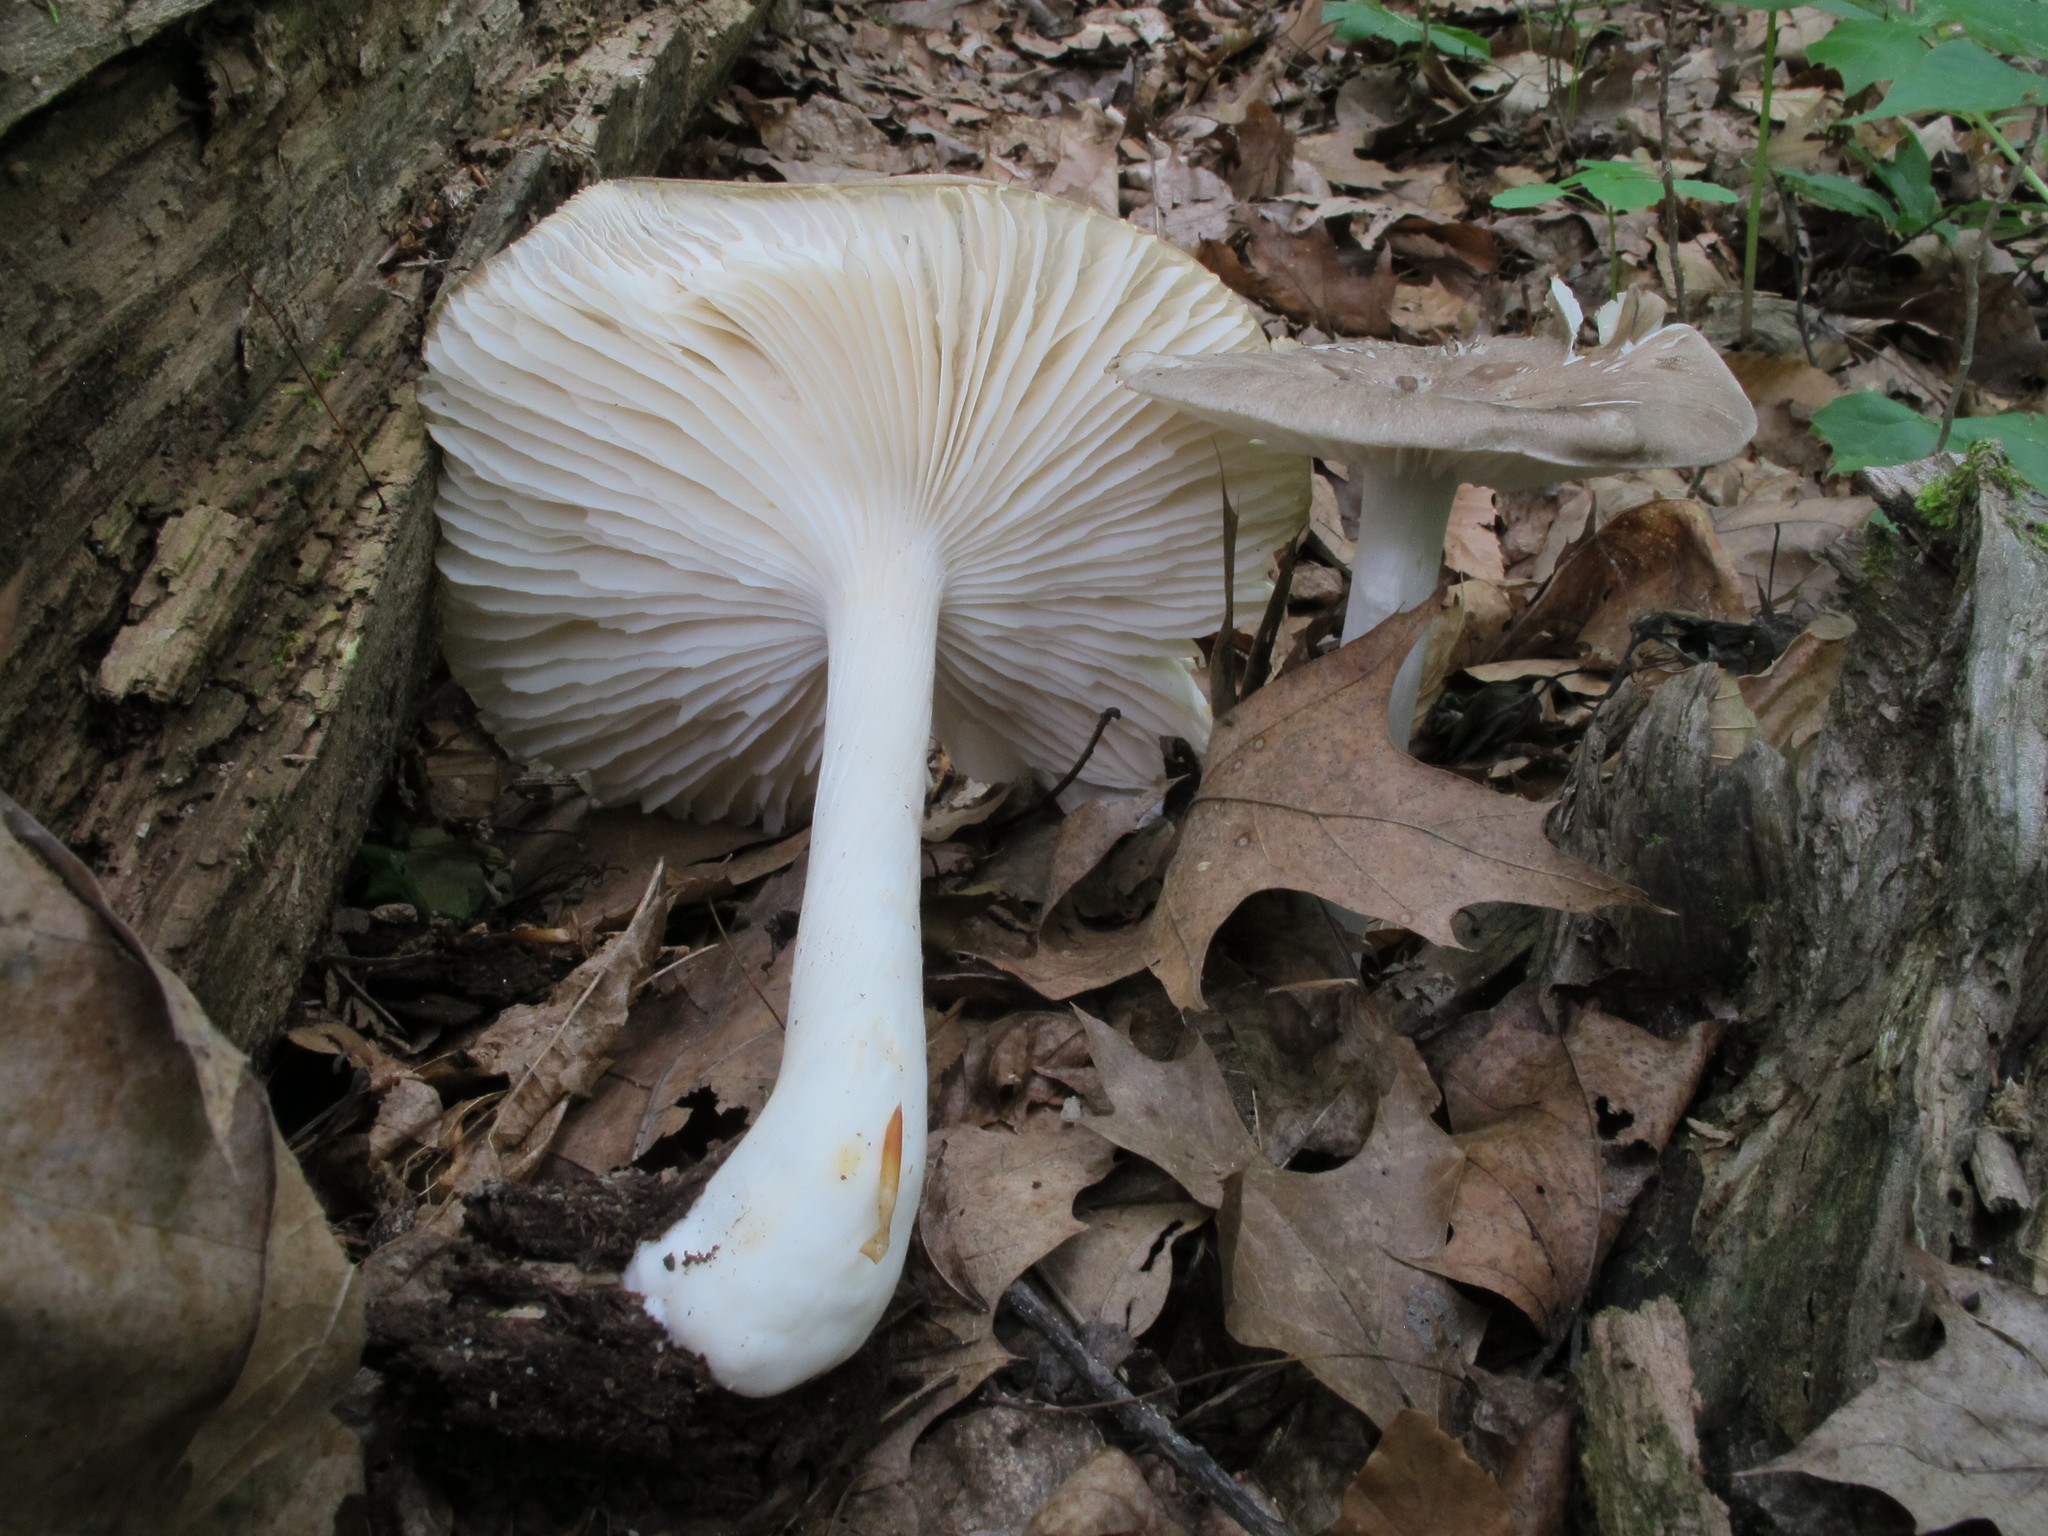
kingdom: Fungi
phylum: Basidiomycota
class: Agaricomycetes
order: Agaricales
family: Tricholomataceae
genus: Megacollybia
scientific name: Megacollybia rodmanii
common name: Eastern american platterful mushroom
